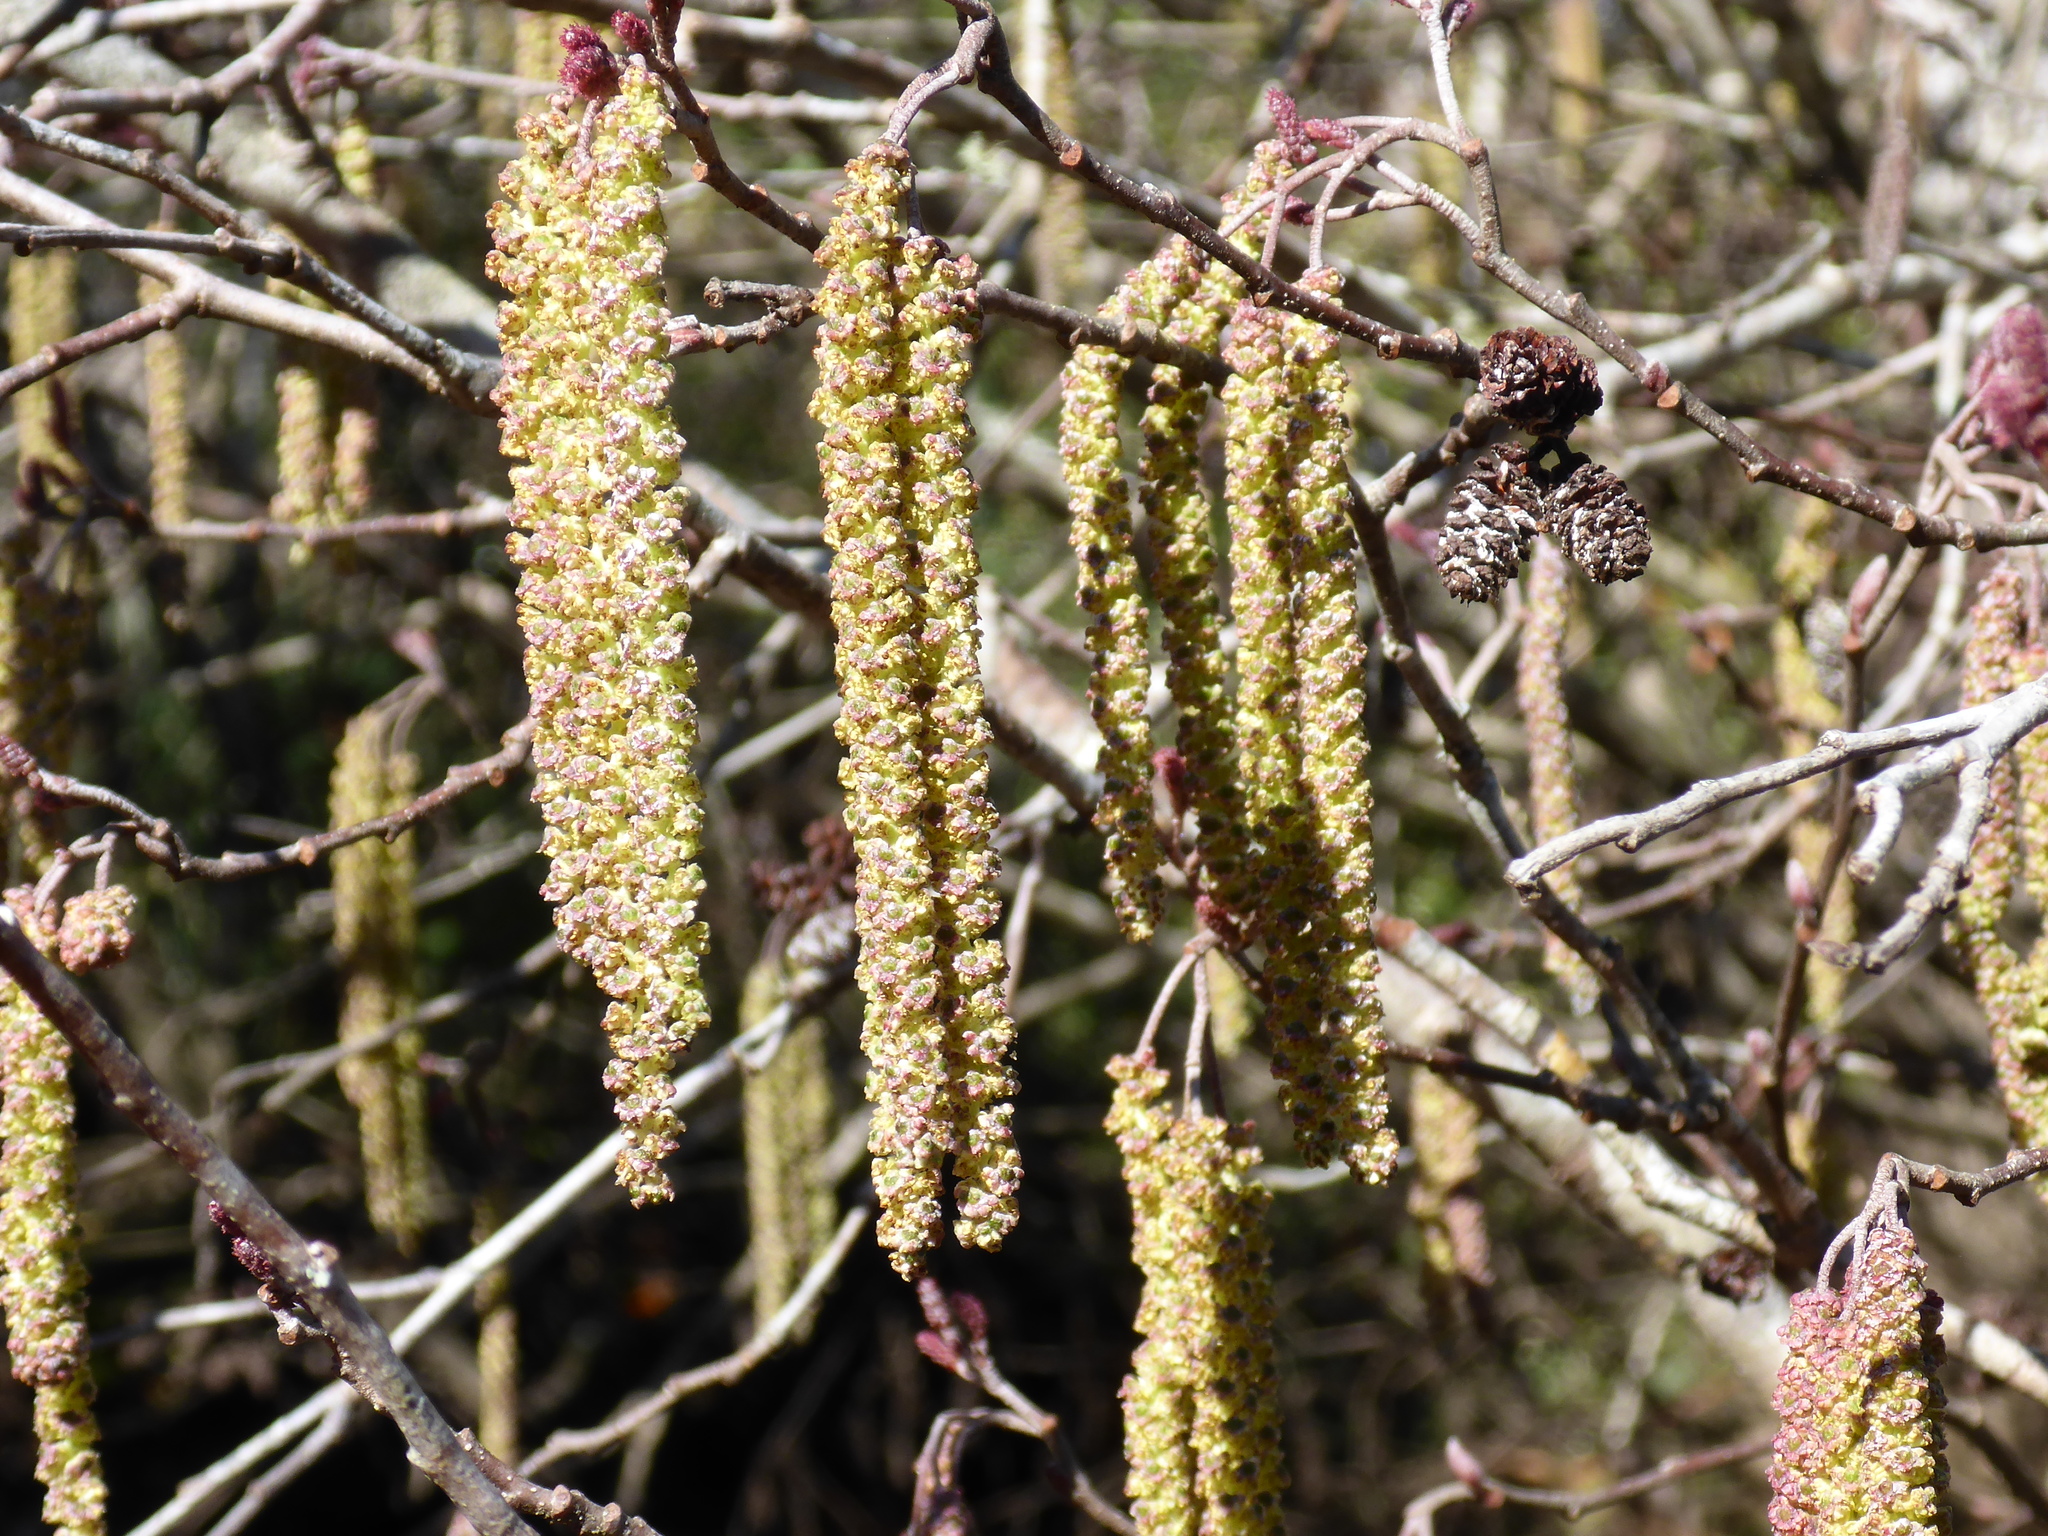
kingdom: Plantae
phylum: Tracheophyta
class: Magnoliopsida
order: Fagales
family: Betulaceae
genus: Alnus
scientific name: Alnus serrulata
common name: Hazel alder
